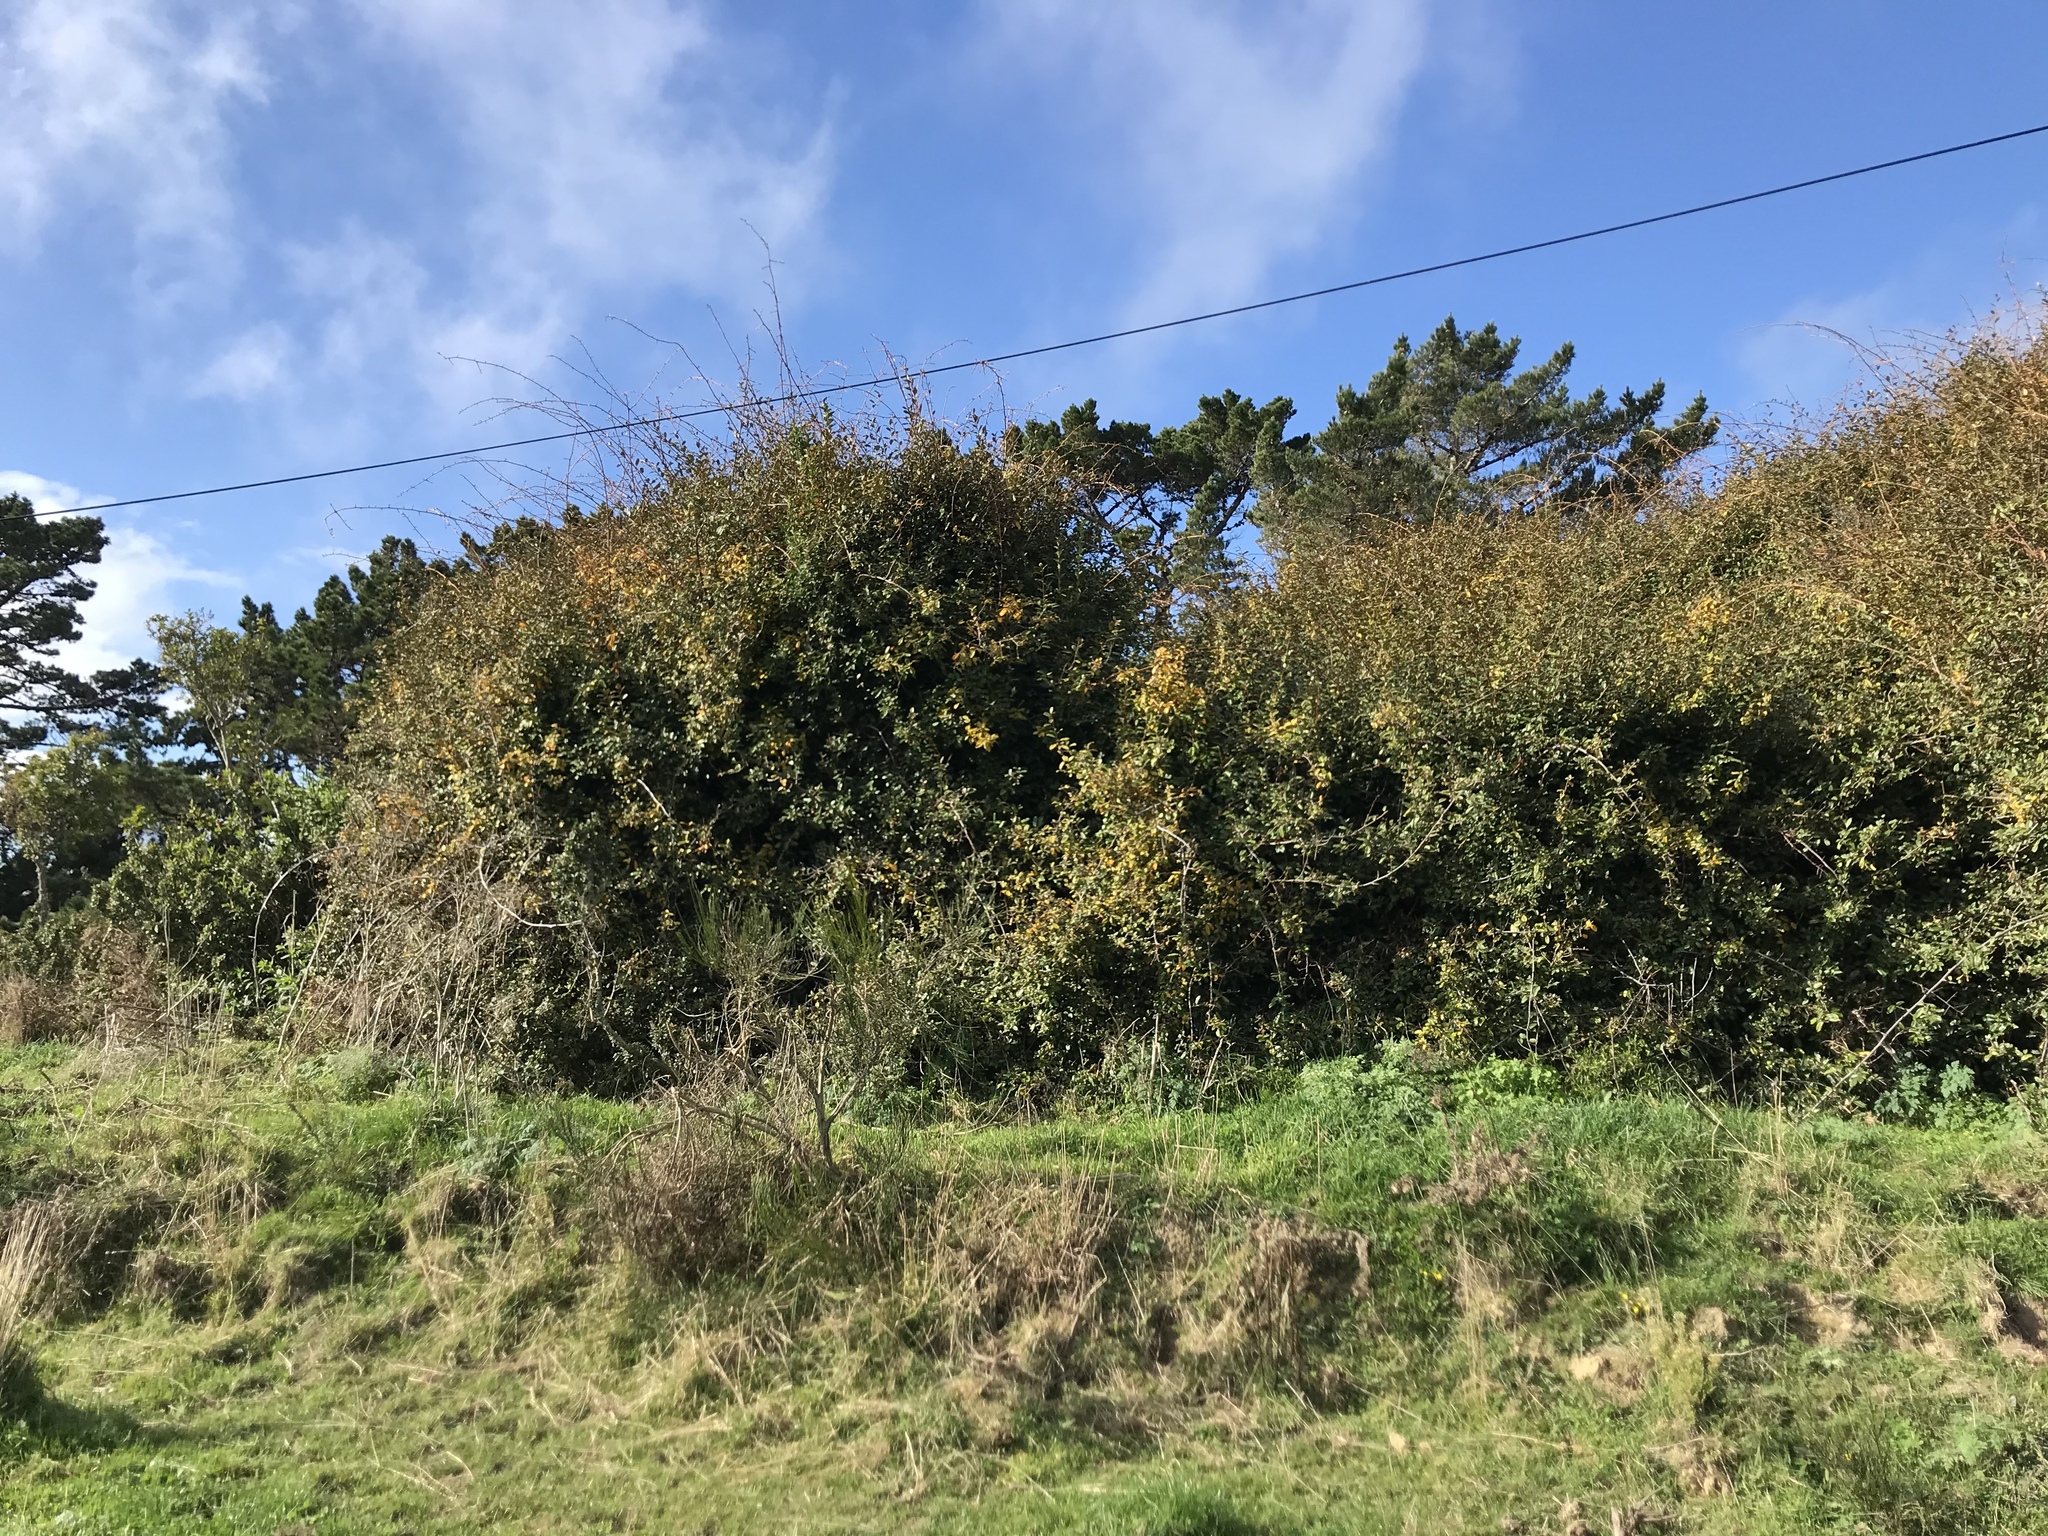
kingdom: Plantae
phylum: Tracheophyta
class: Magnoliopsida
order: Rosales
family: Elaeagnaceae
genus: Elaeagnus
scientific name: Elaeagnus reflexa
